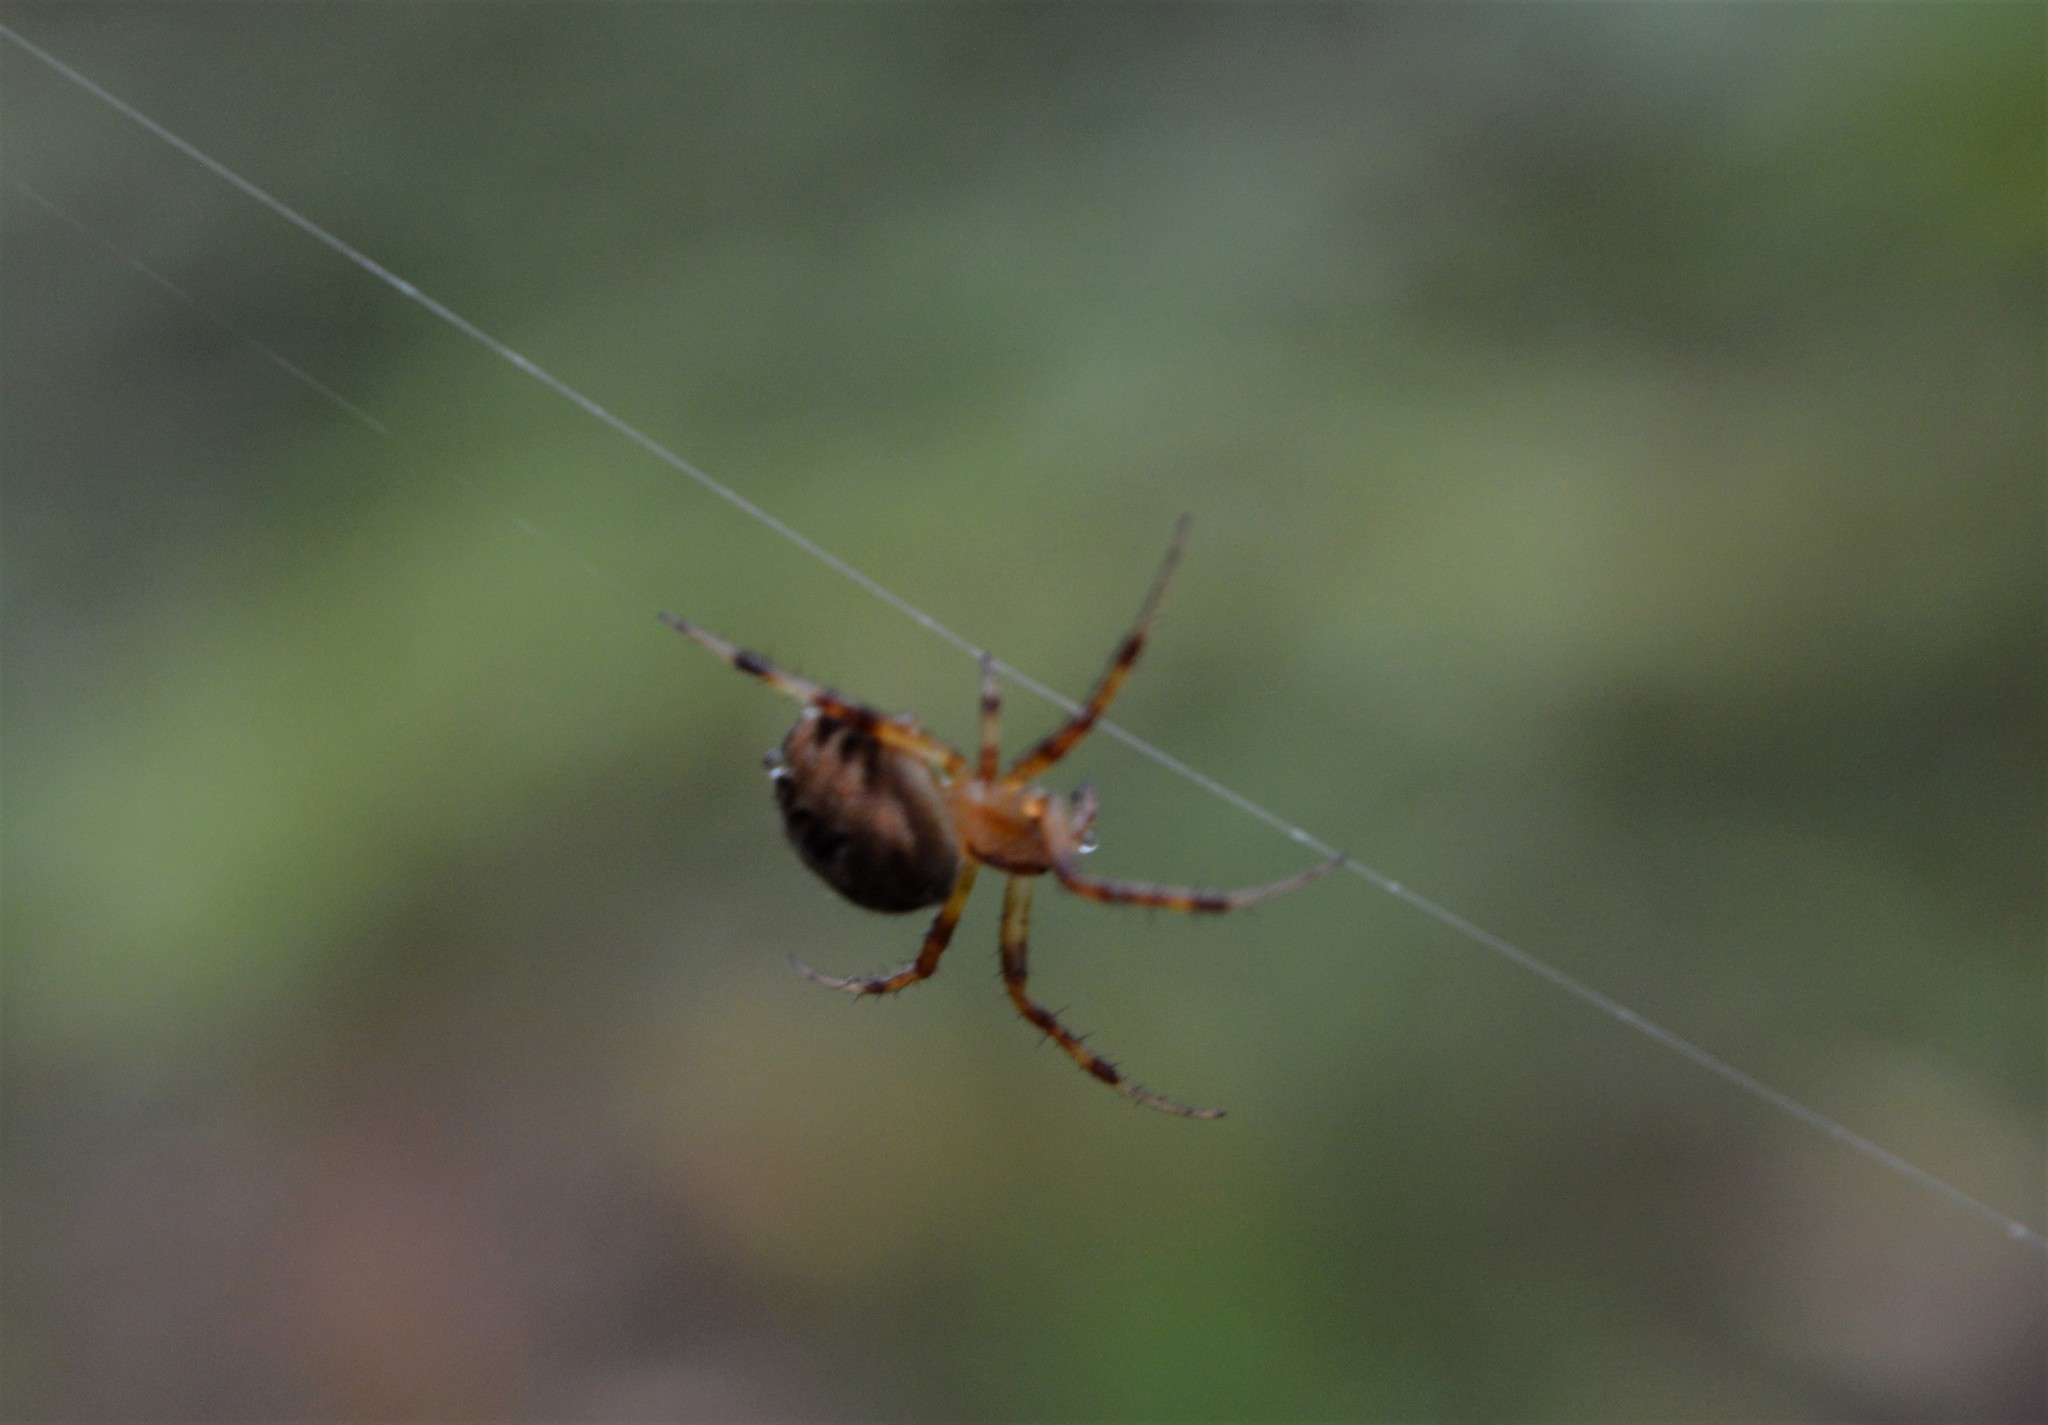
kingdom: Animalia
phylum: Arthropoda
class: Arachnida
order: Araneae
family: Araneidae
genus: Neoscona
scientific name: Neoscona arabesca
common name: Orb weavers
